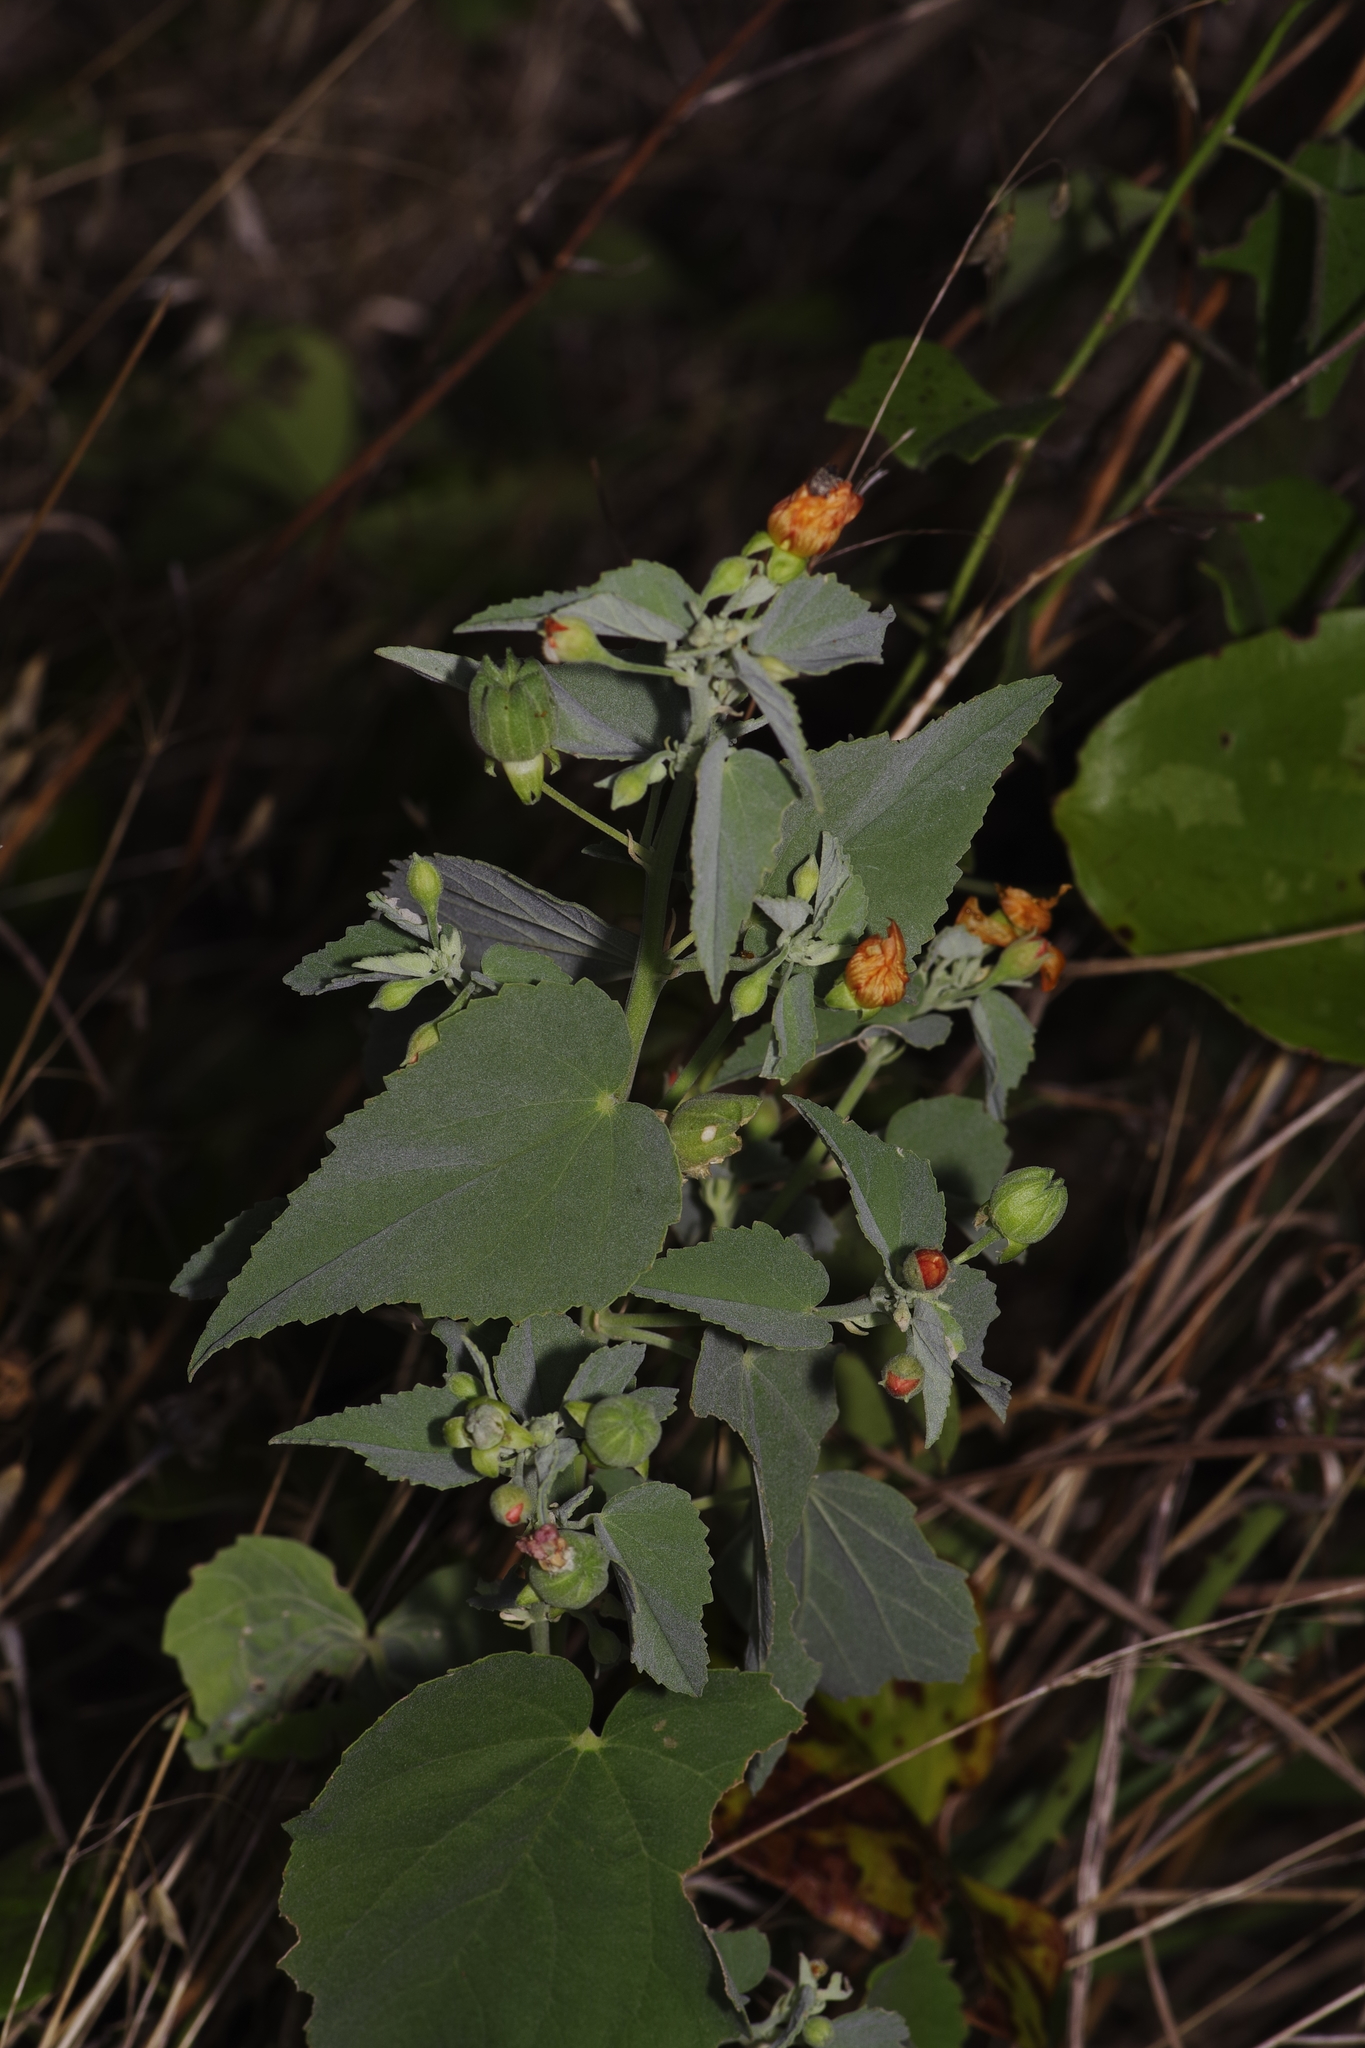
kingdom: Plantae
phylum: Tracheophyta
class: Magnoliopsida
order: Malvales
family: Malvaceae
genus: Abutilon
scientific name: Abutilon fruticosum
